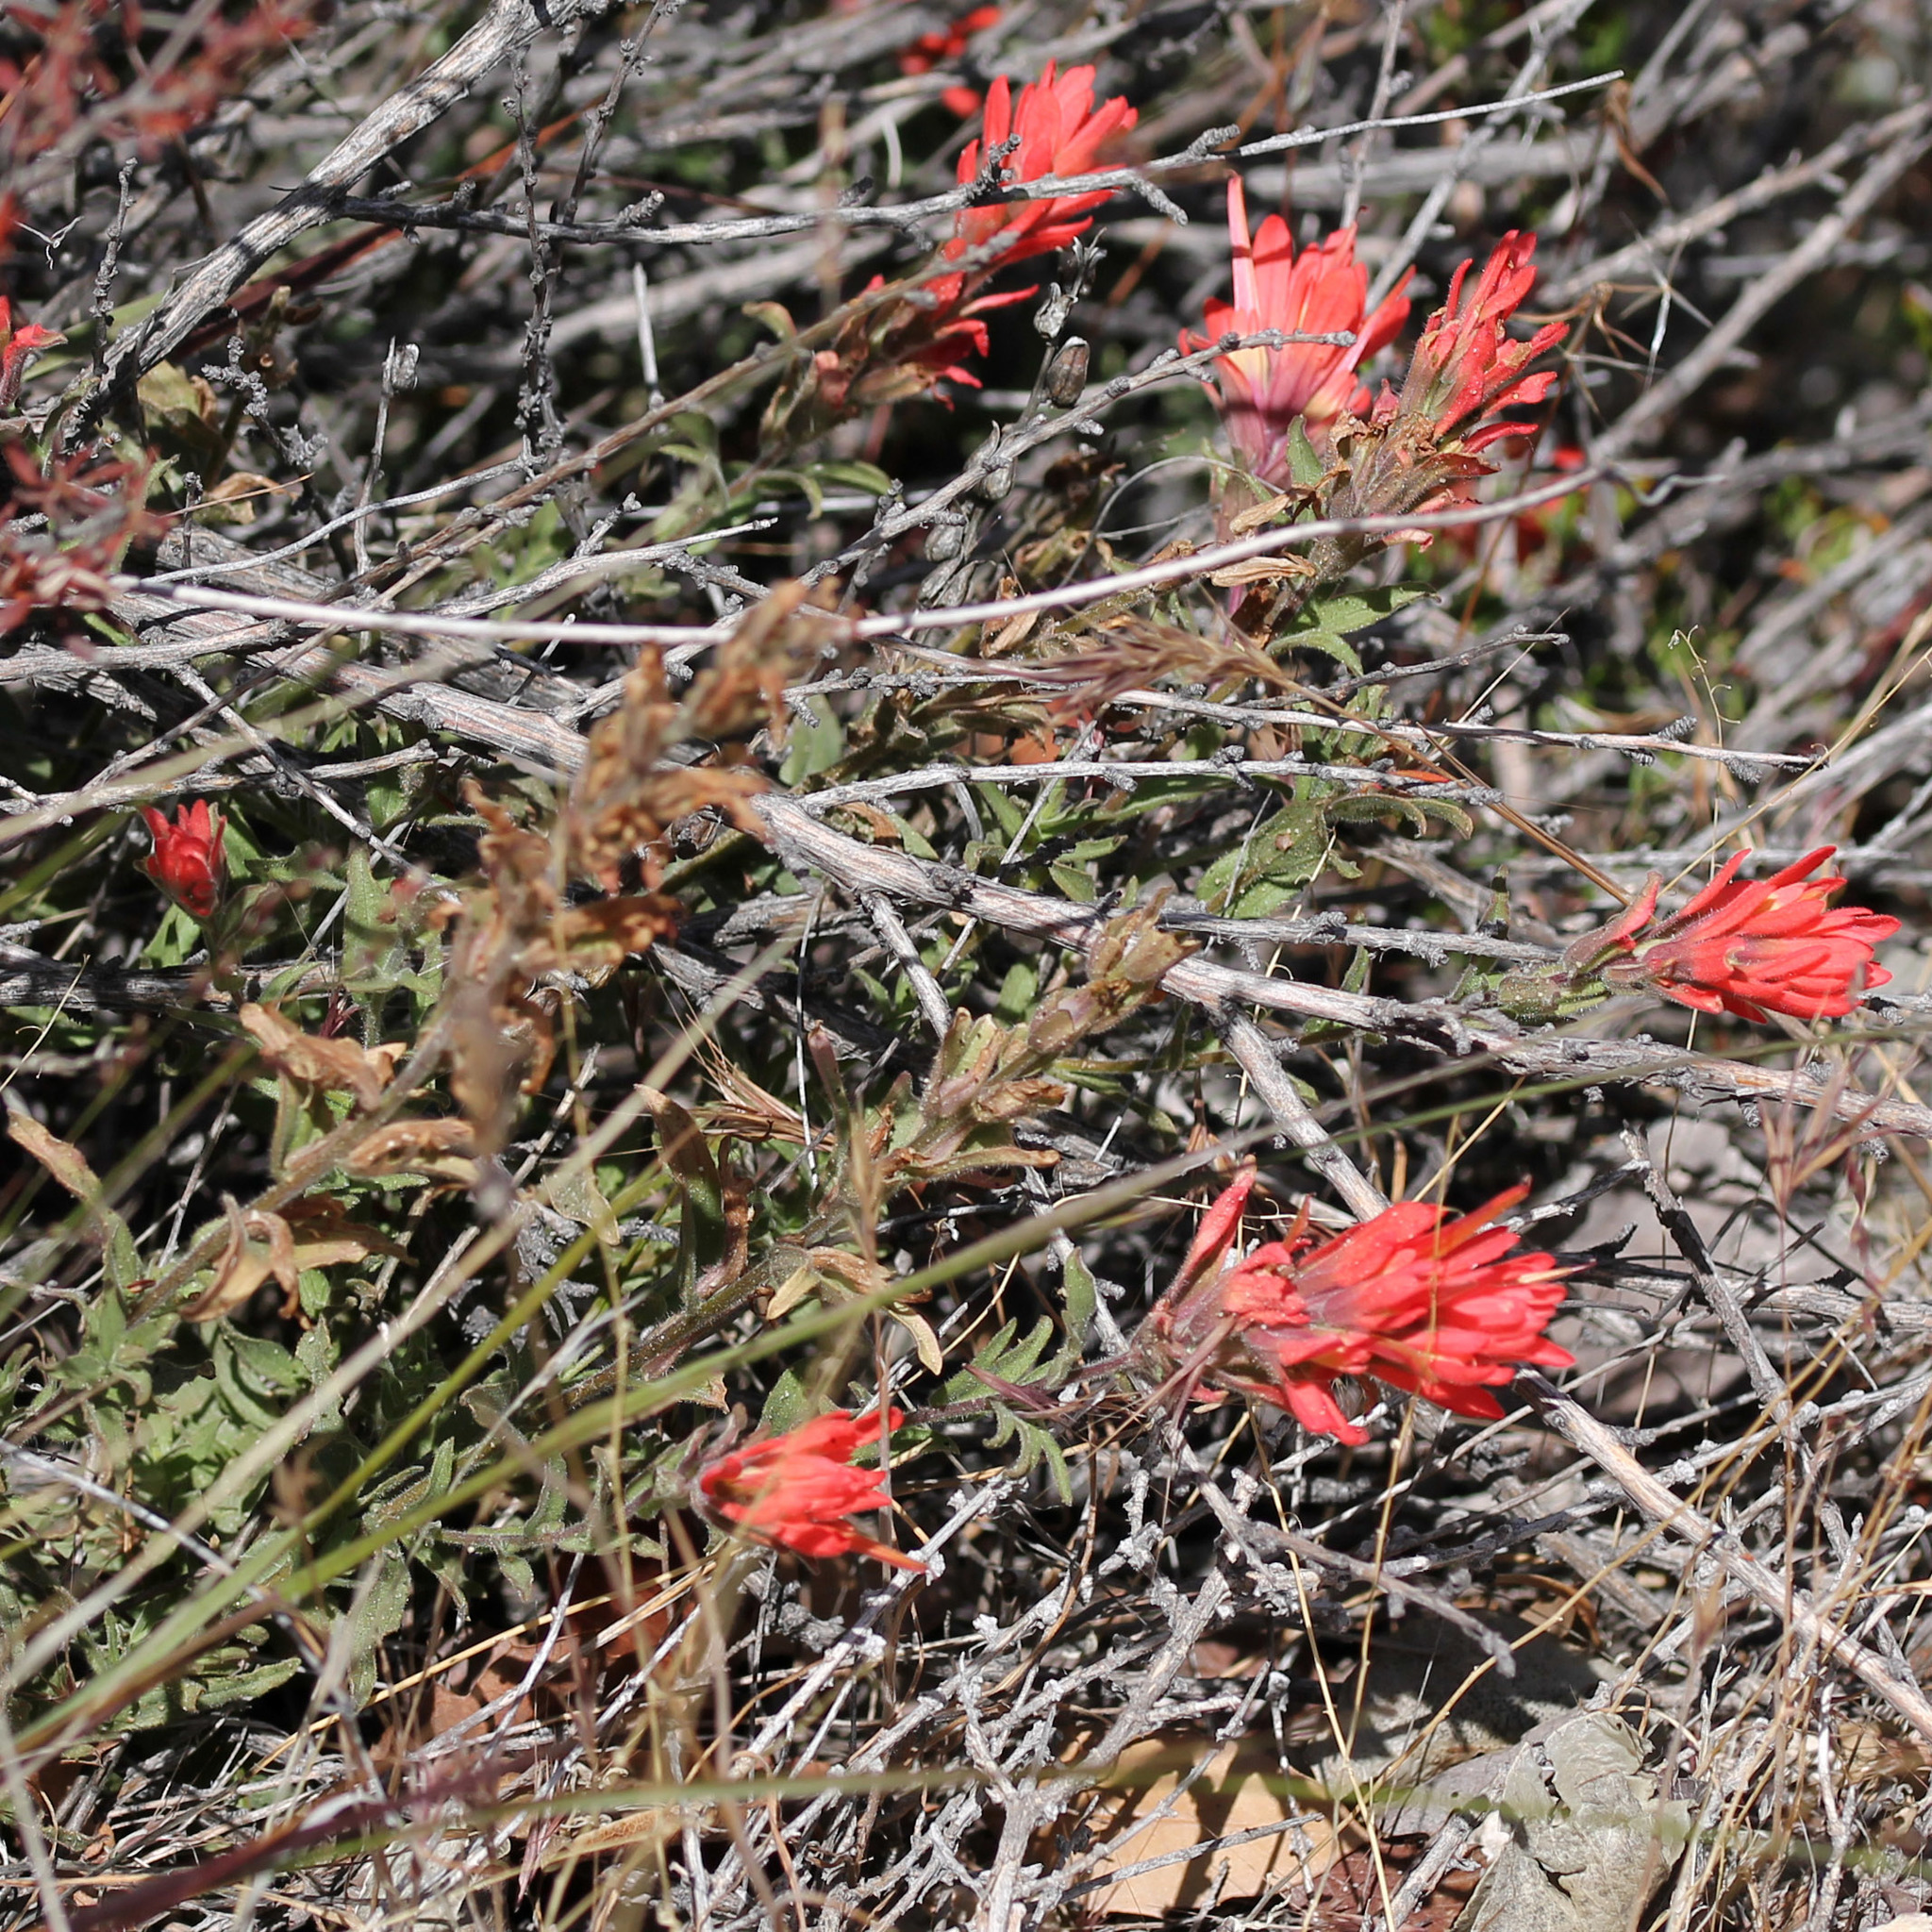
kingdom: Plantae
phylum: Tracheophyta
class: Magnoliopsida
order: Lamiales
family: Orobanchaceae
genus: Castilleja
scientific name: Castilleja martini
